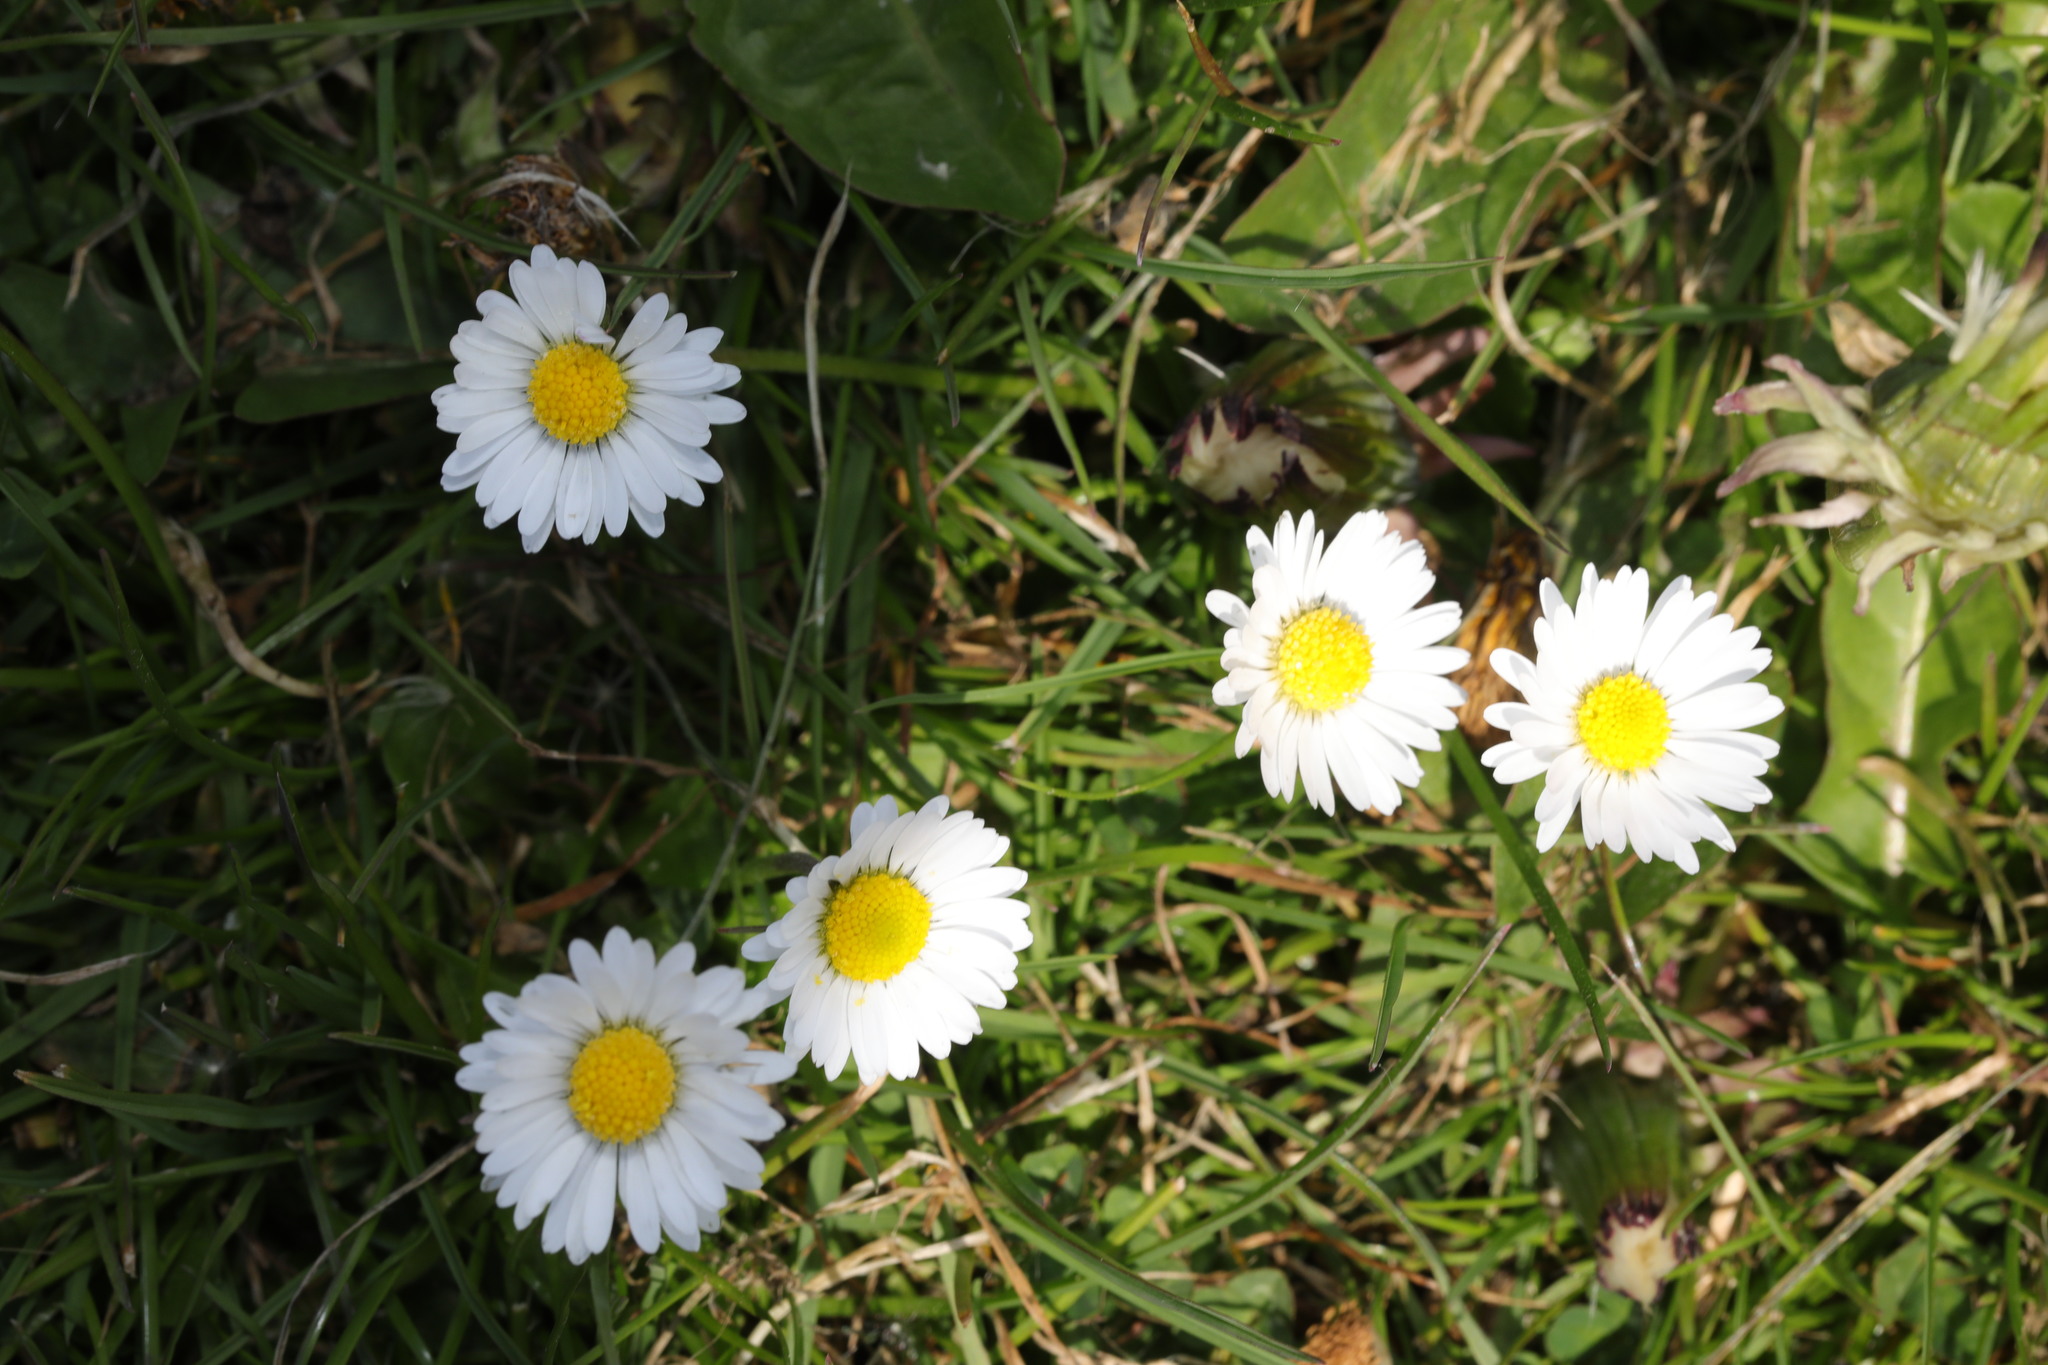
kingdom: Plantae
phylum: Tracheophyta
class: Magnoliopsida
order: Asterales
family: Asteraceae
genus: Bellis
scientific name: Bellis perennis
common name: Lawndaisy
